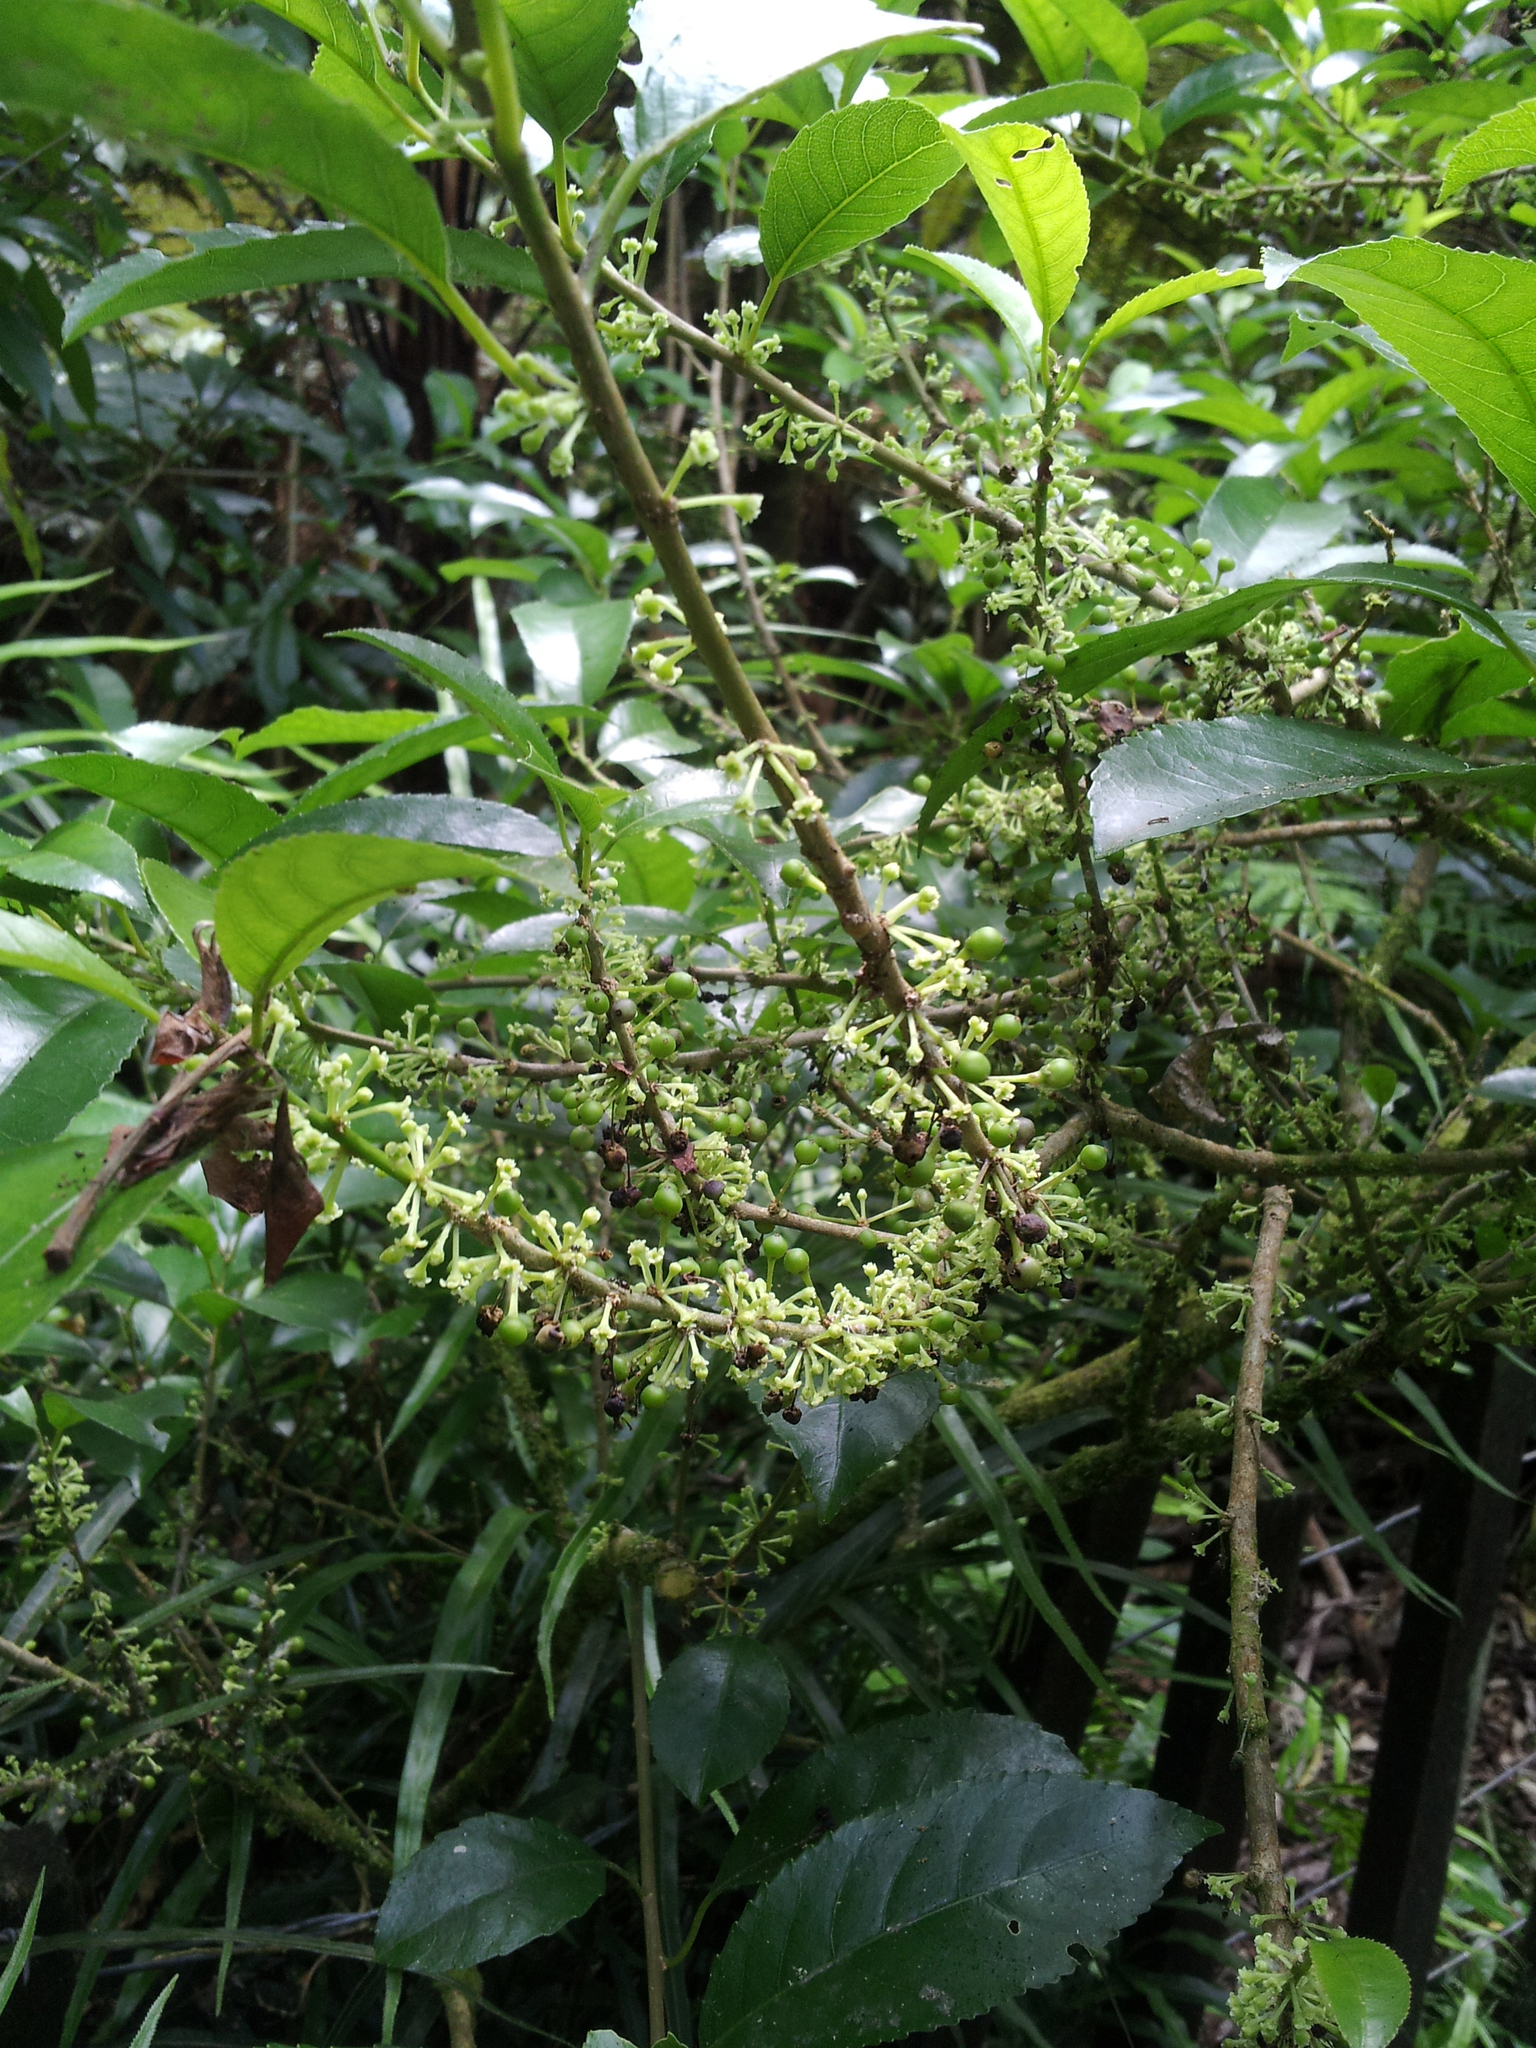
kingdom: Plantae
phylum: Tracheophyta
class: Magnoliopsida
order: Malpighiales
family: Violaceae
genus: Melicytus
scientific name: Melicytus ramiflorus
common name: Mahoe
